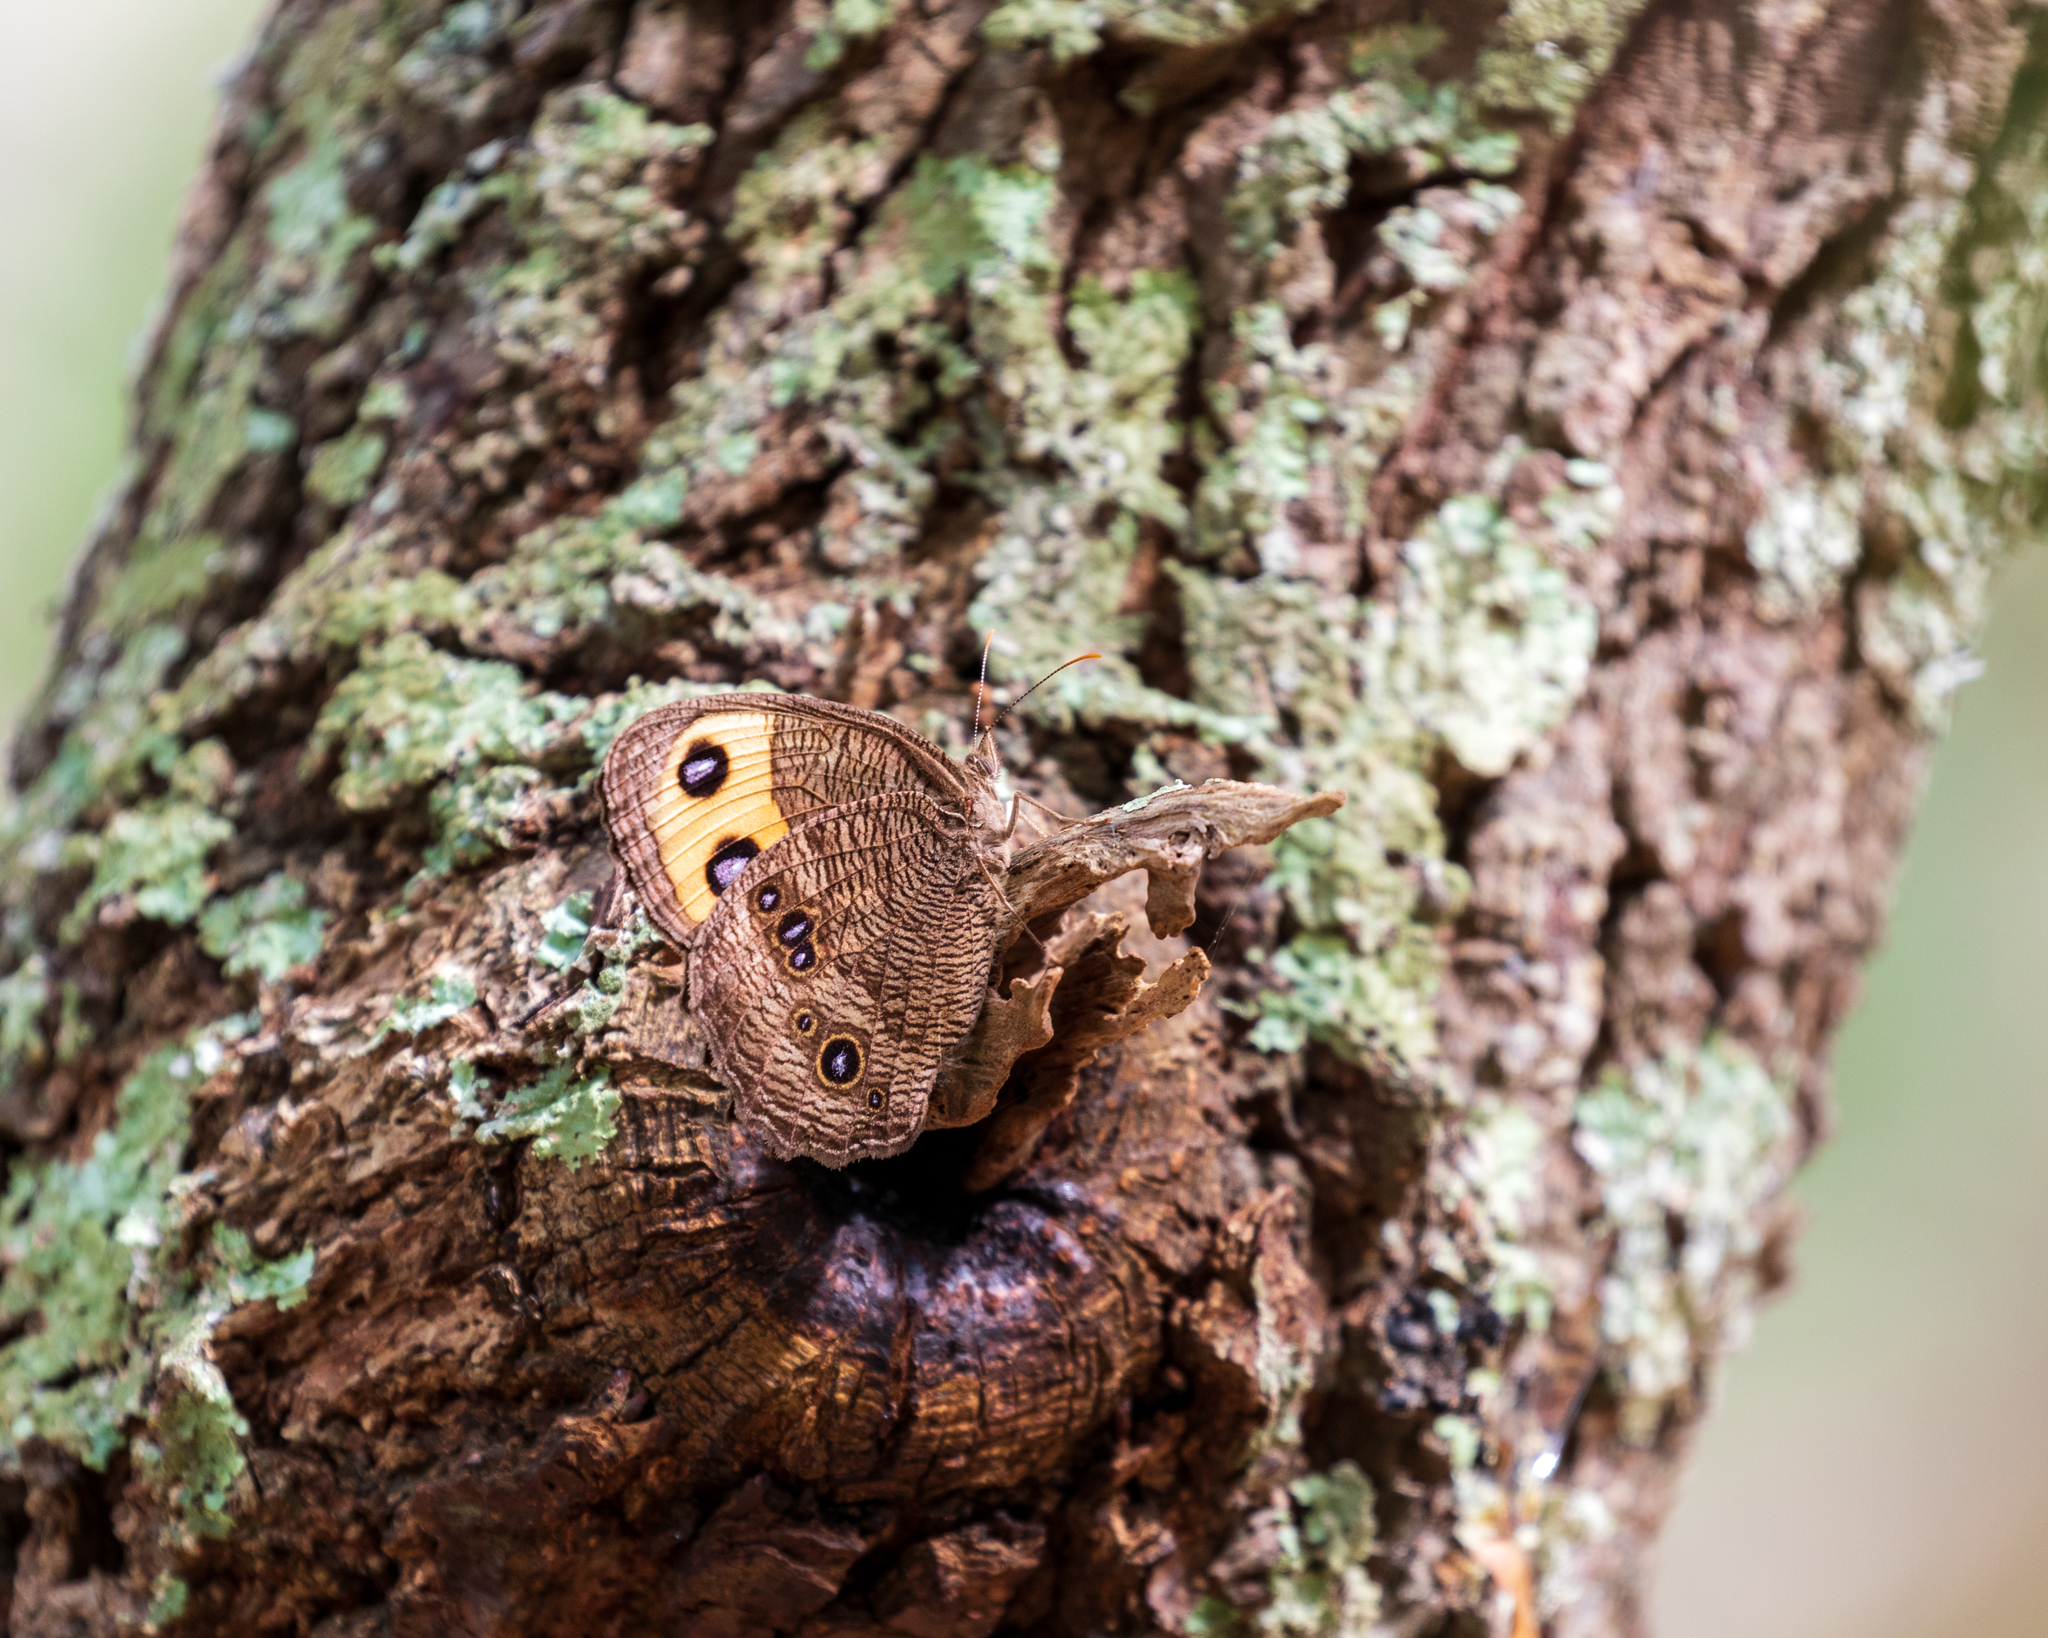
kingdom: Animalia
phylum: Arthropoda
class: Insecta
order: Lepidoptera
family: Nymphalidae
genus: Cercyonis
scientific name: Cercyonis pegala
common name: Common wood-nymph
